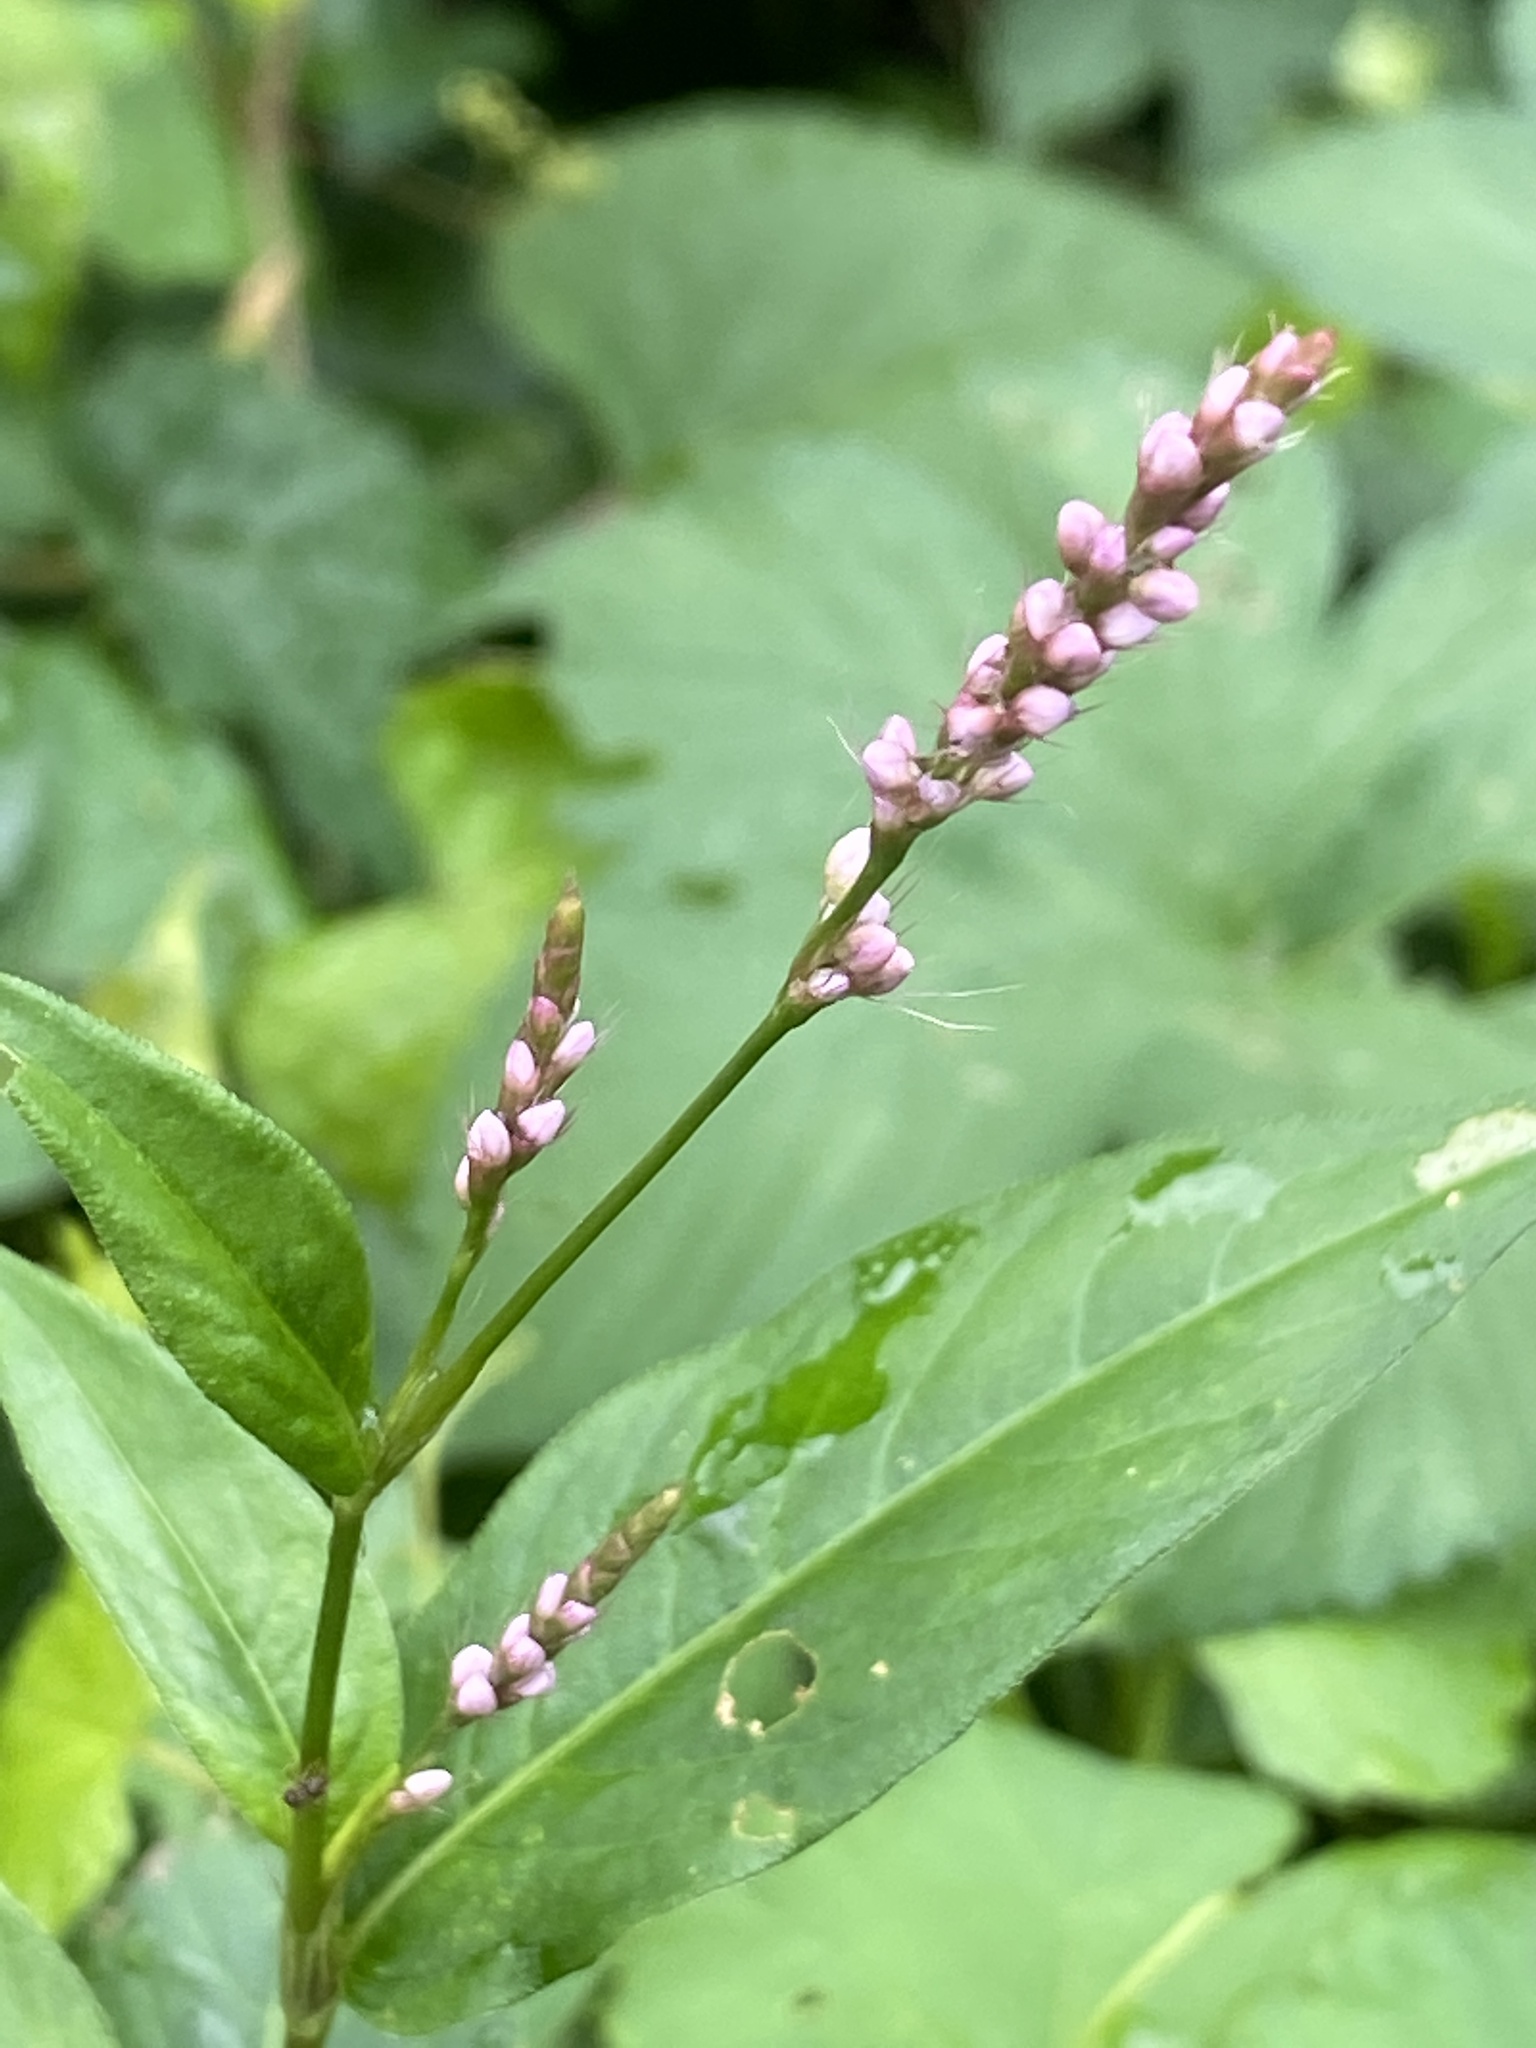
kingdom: Plantae
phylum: Tracheophyta
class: Magnoliopsida
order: Caryophyllales
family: Polygonaceae
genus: Persicaria
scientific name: Persicaria longiseta
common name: Bristly lady's-thumb
